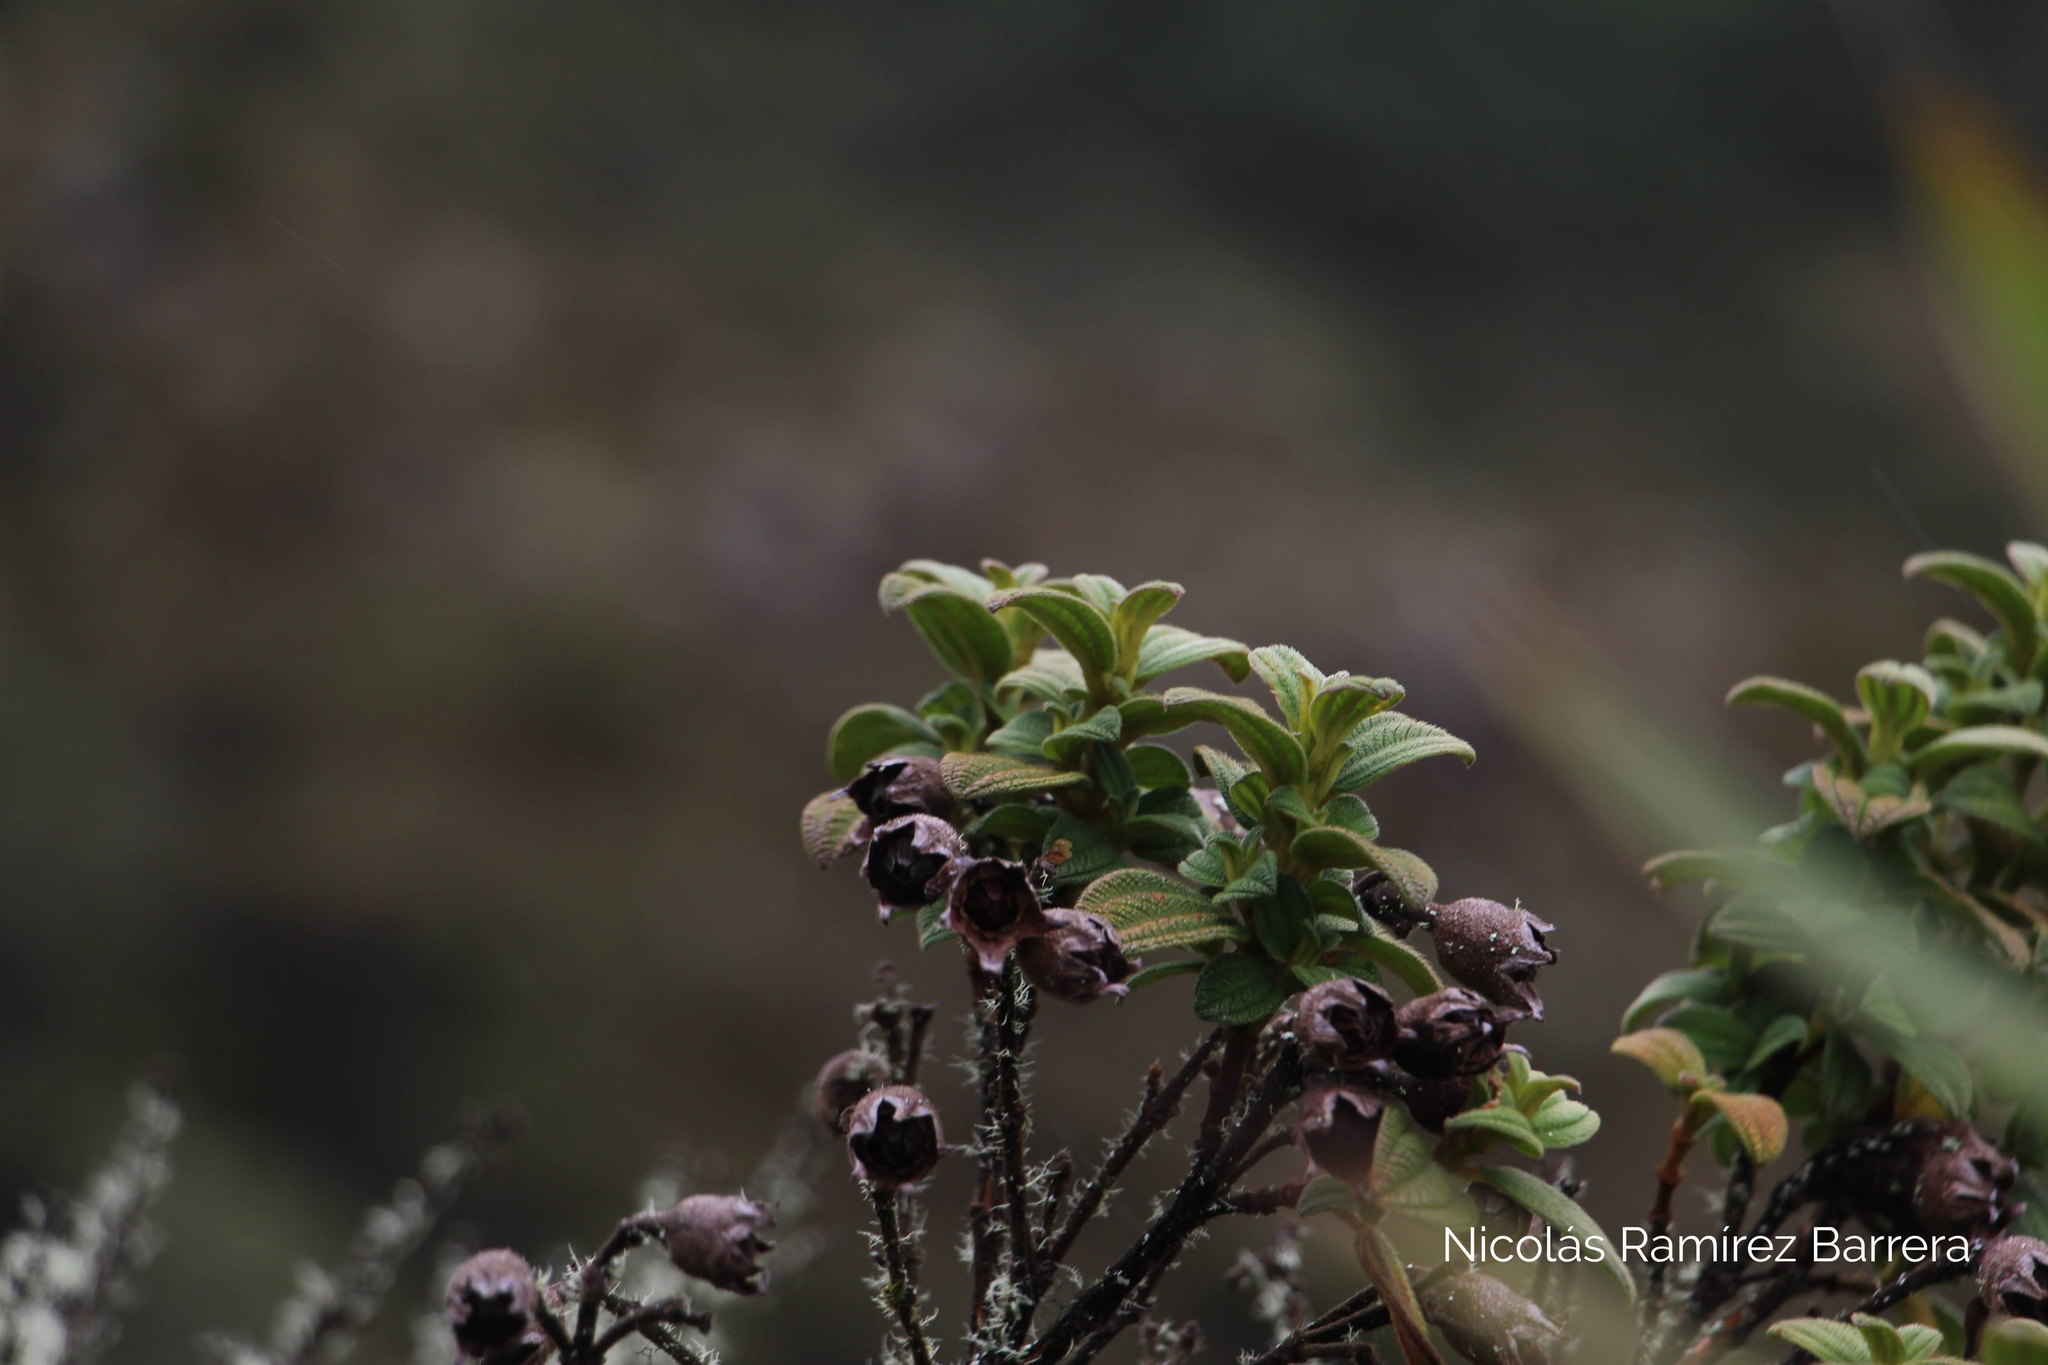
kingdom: Plantae
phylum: Tracheophyta
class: Magnoliopsida
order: Myrtales
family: Melastomataceae
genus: Chaetogastra
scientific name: Chaetogastra grossa
